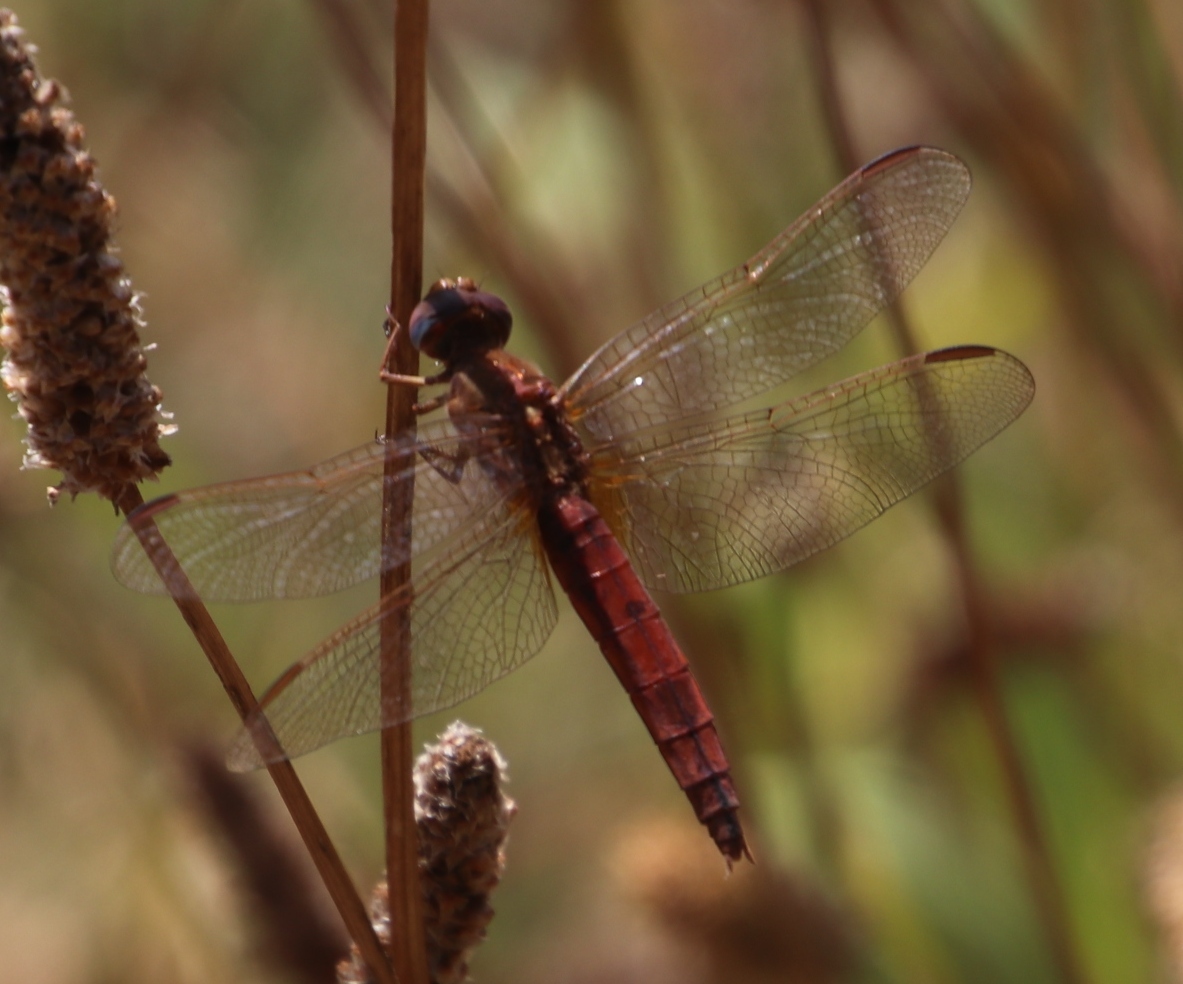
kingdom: Animalia
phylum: Arthropoda
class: Insecta
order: Odonata
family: Libellulidae
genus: Crocothemis
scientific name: Crocothemis erythraea
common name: Scarlet dragonfly
